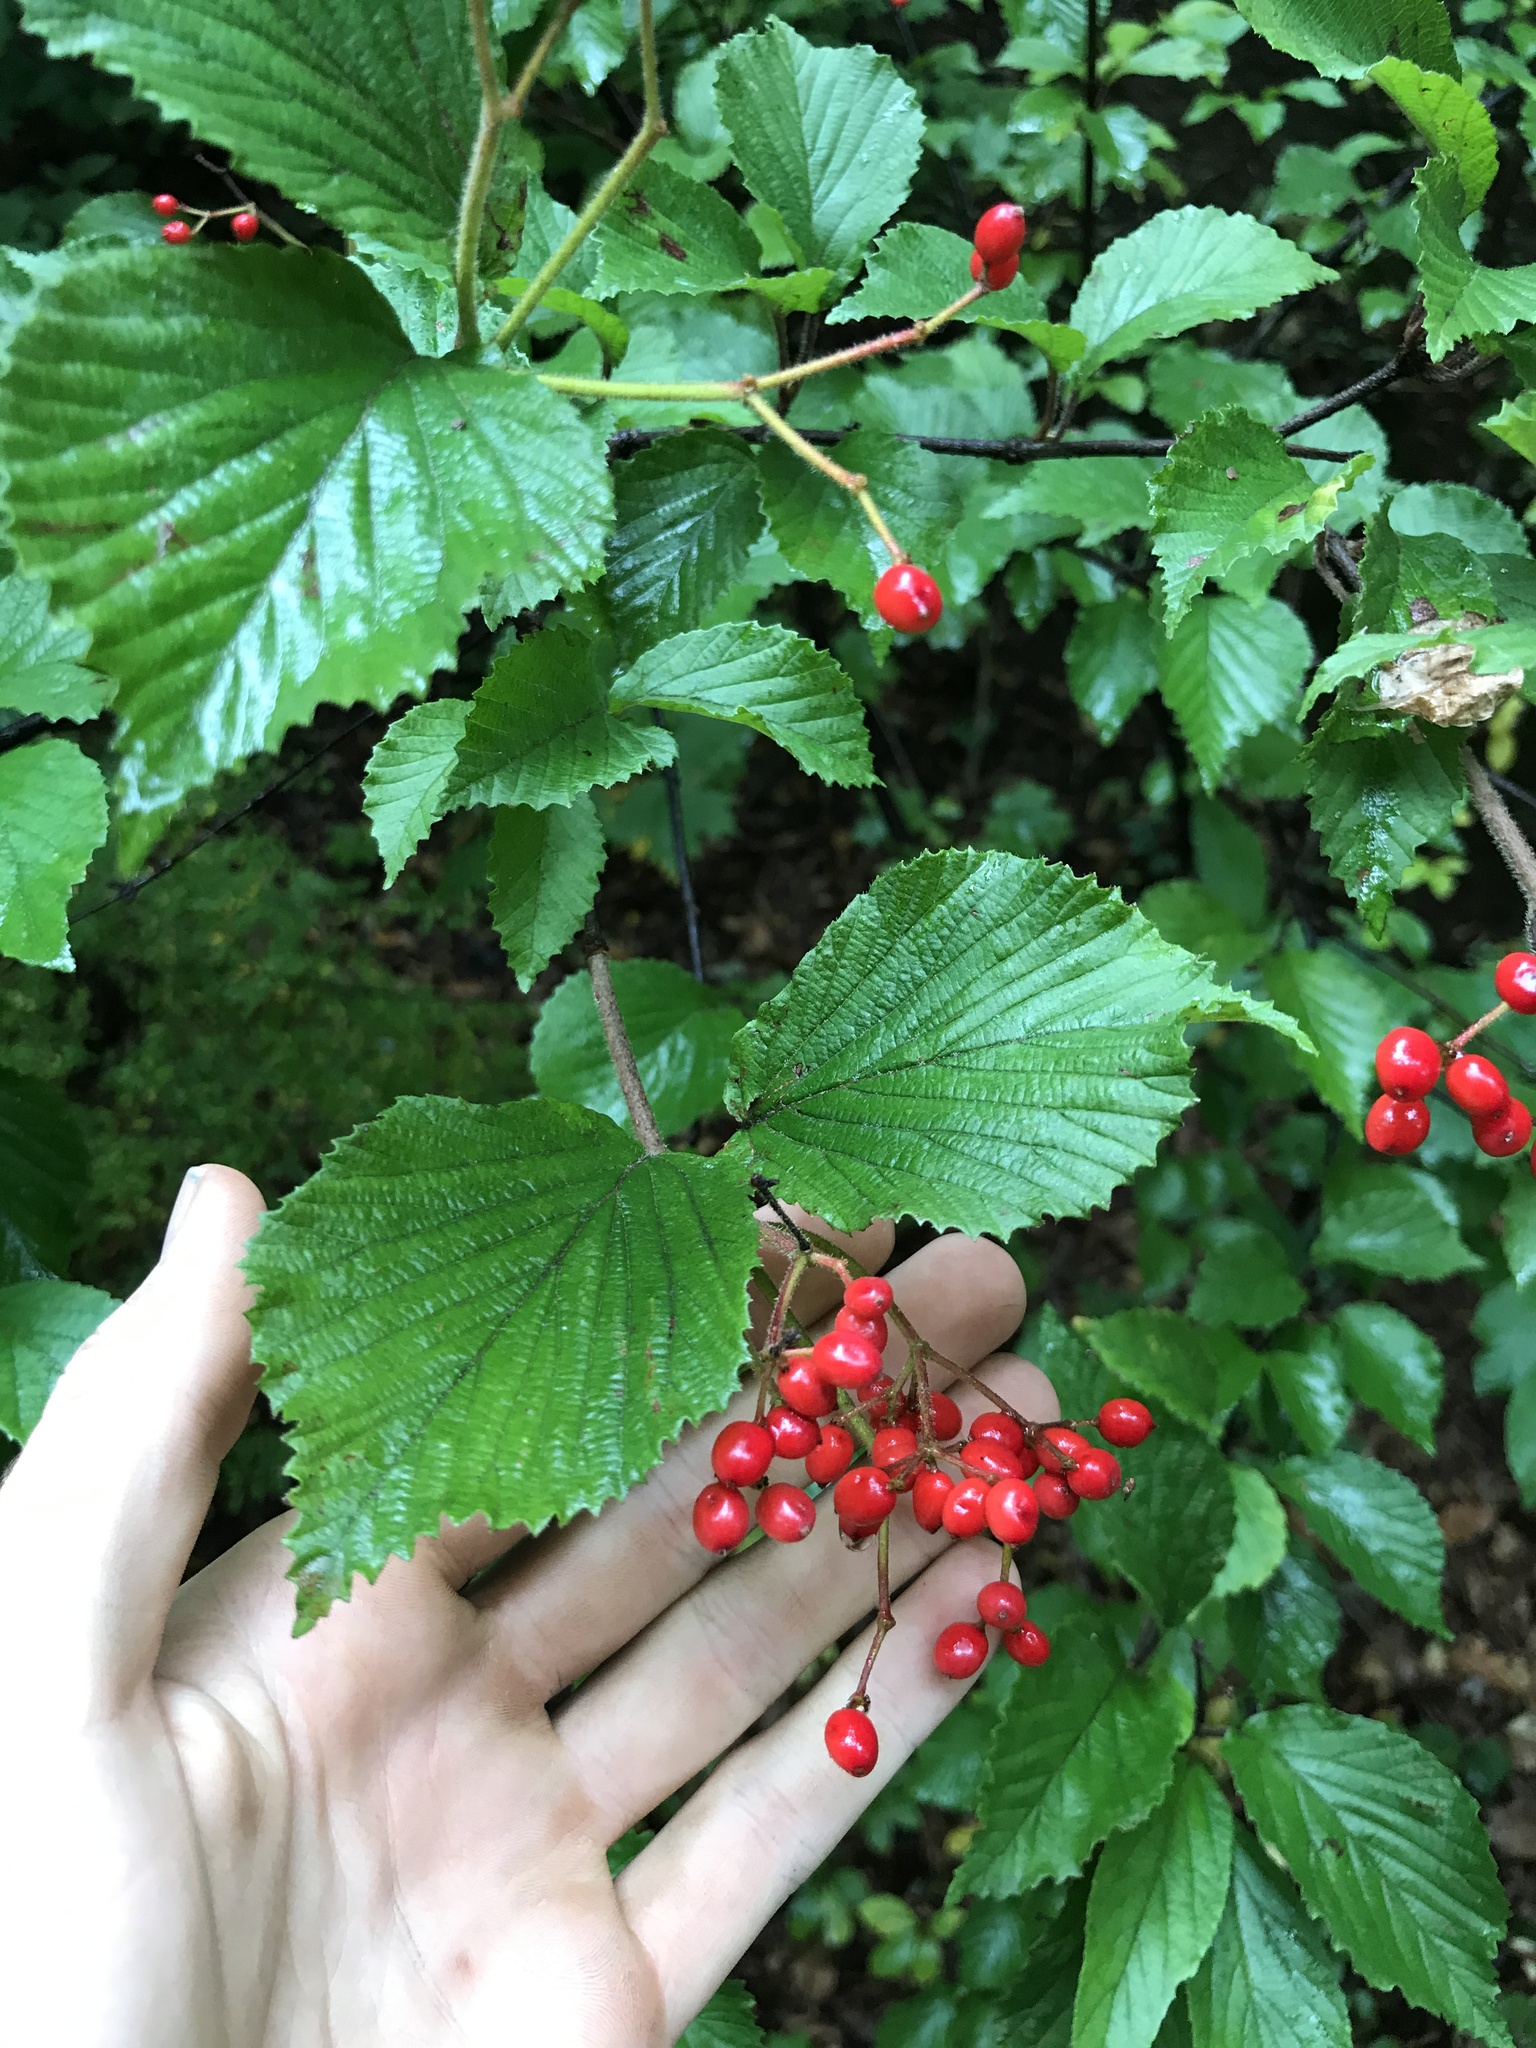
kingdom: Plantae
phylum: Tracheophyta
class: Magnoliopsida
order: Dipsacales
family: Viburnaceae
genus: Viburnum
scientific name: Viburnum dilatatum
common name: Linden arrowwood
